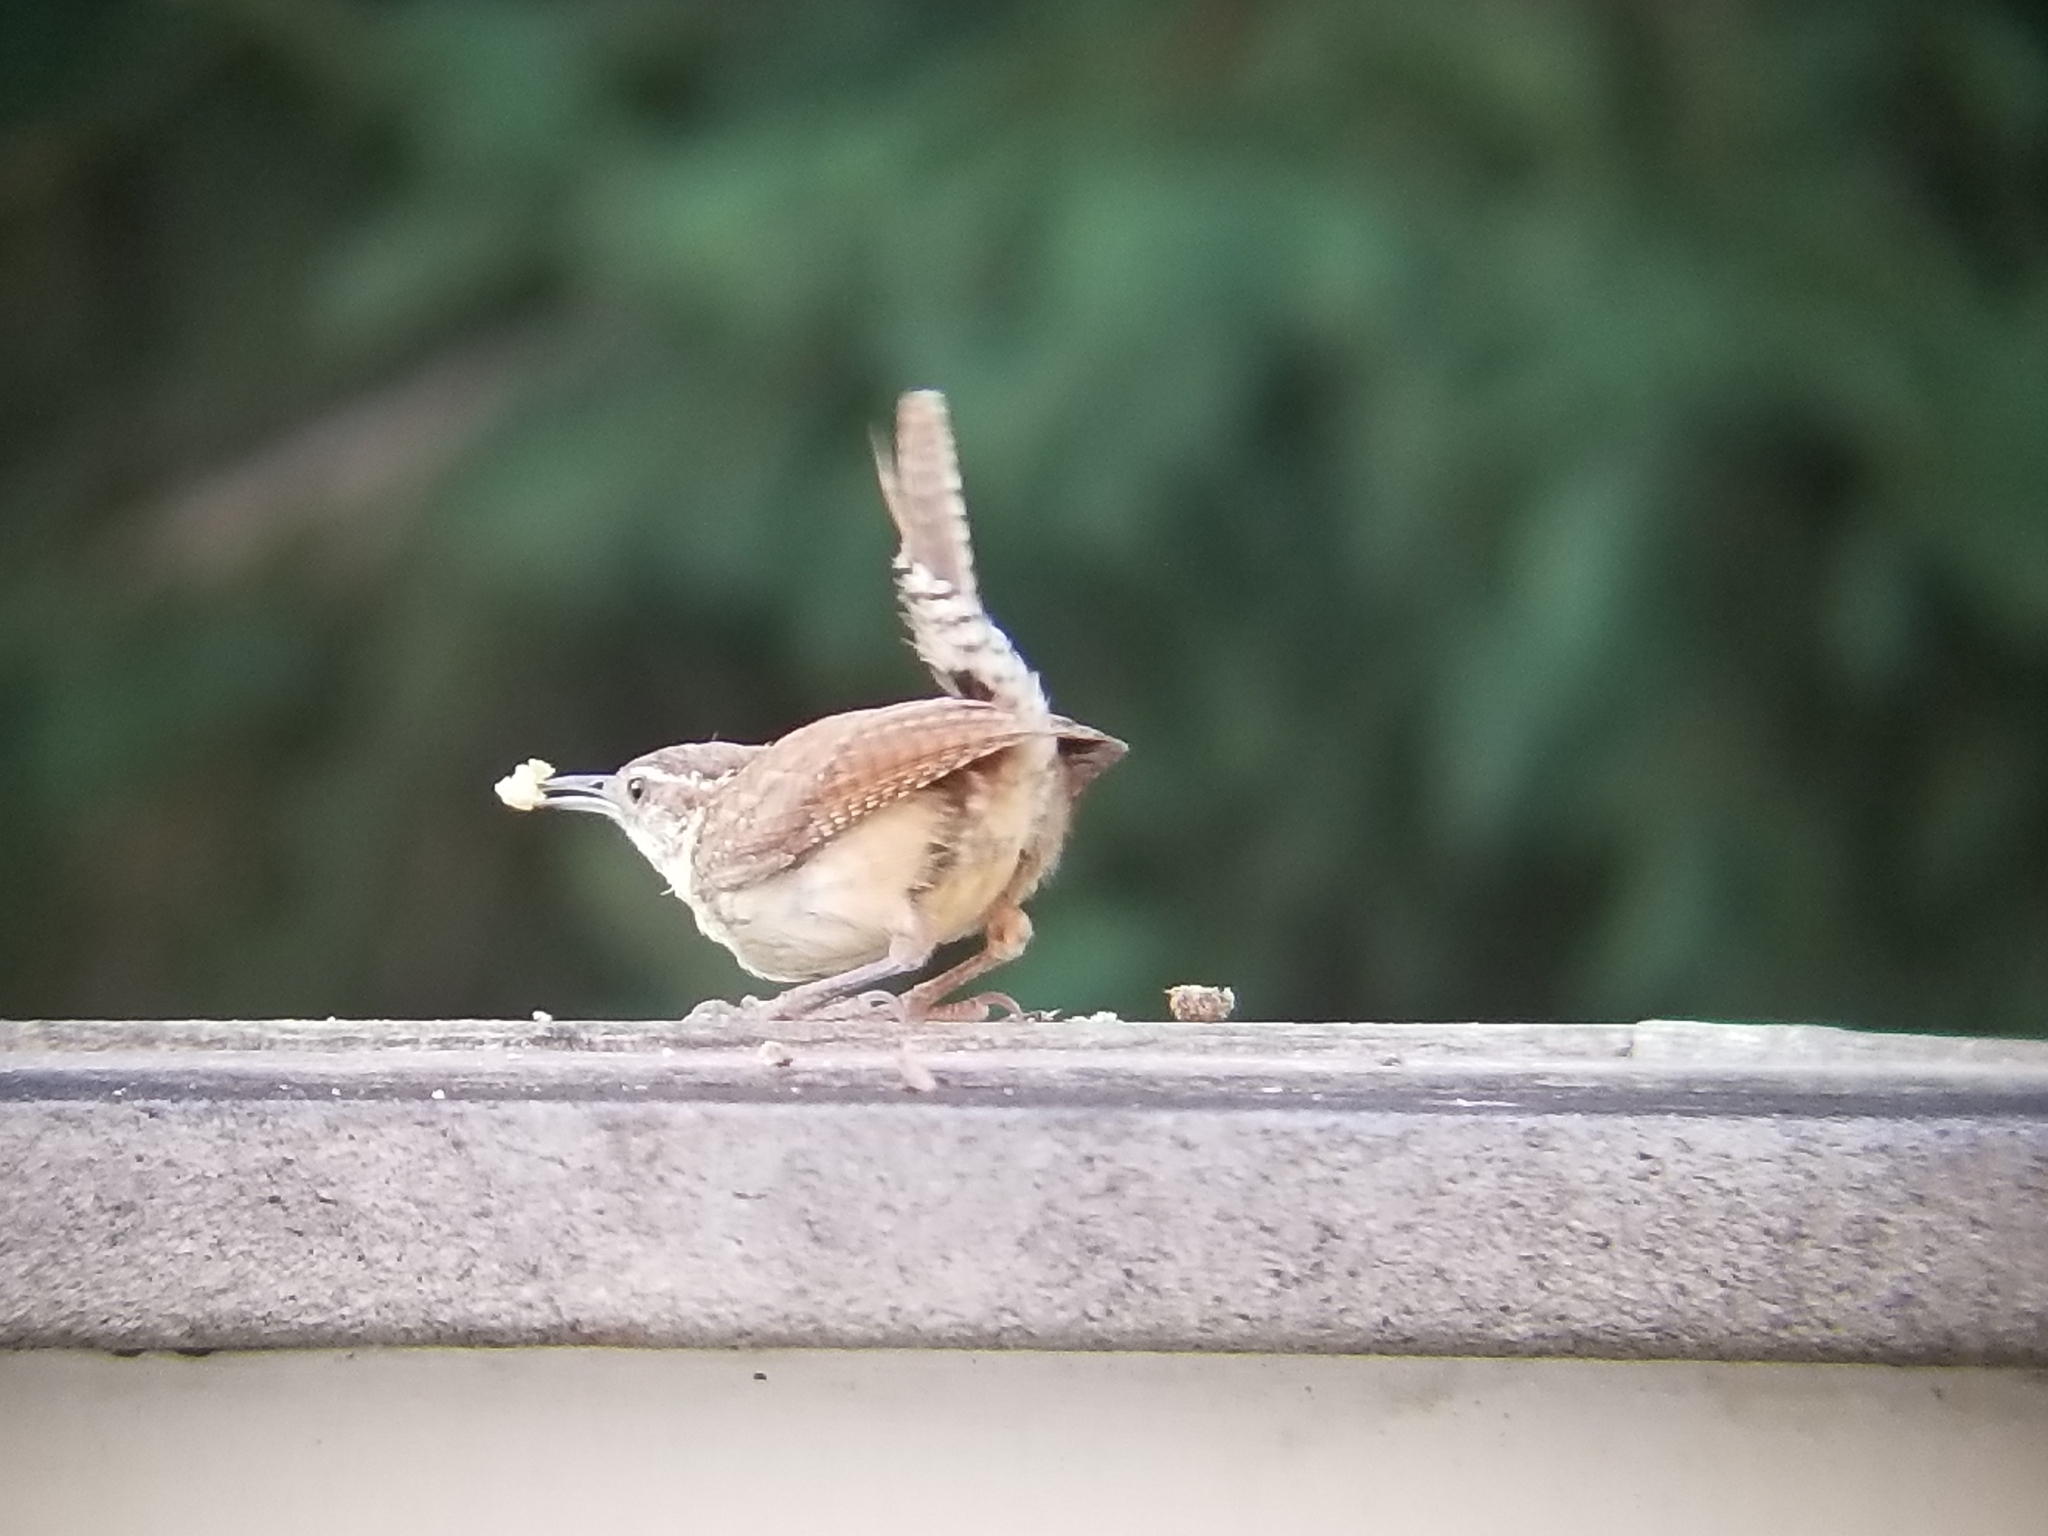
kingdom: Animalia
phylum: Chordata
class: Aves
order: Passeriformes
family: Troglodytidae
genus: Thryothorus
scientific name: Thryothorus ludovicianus
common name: Carolina wren
